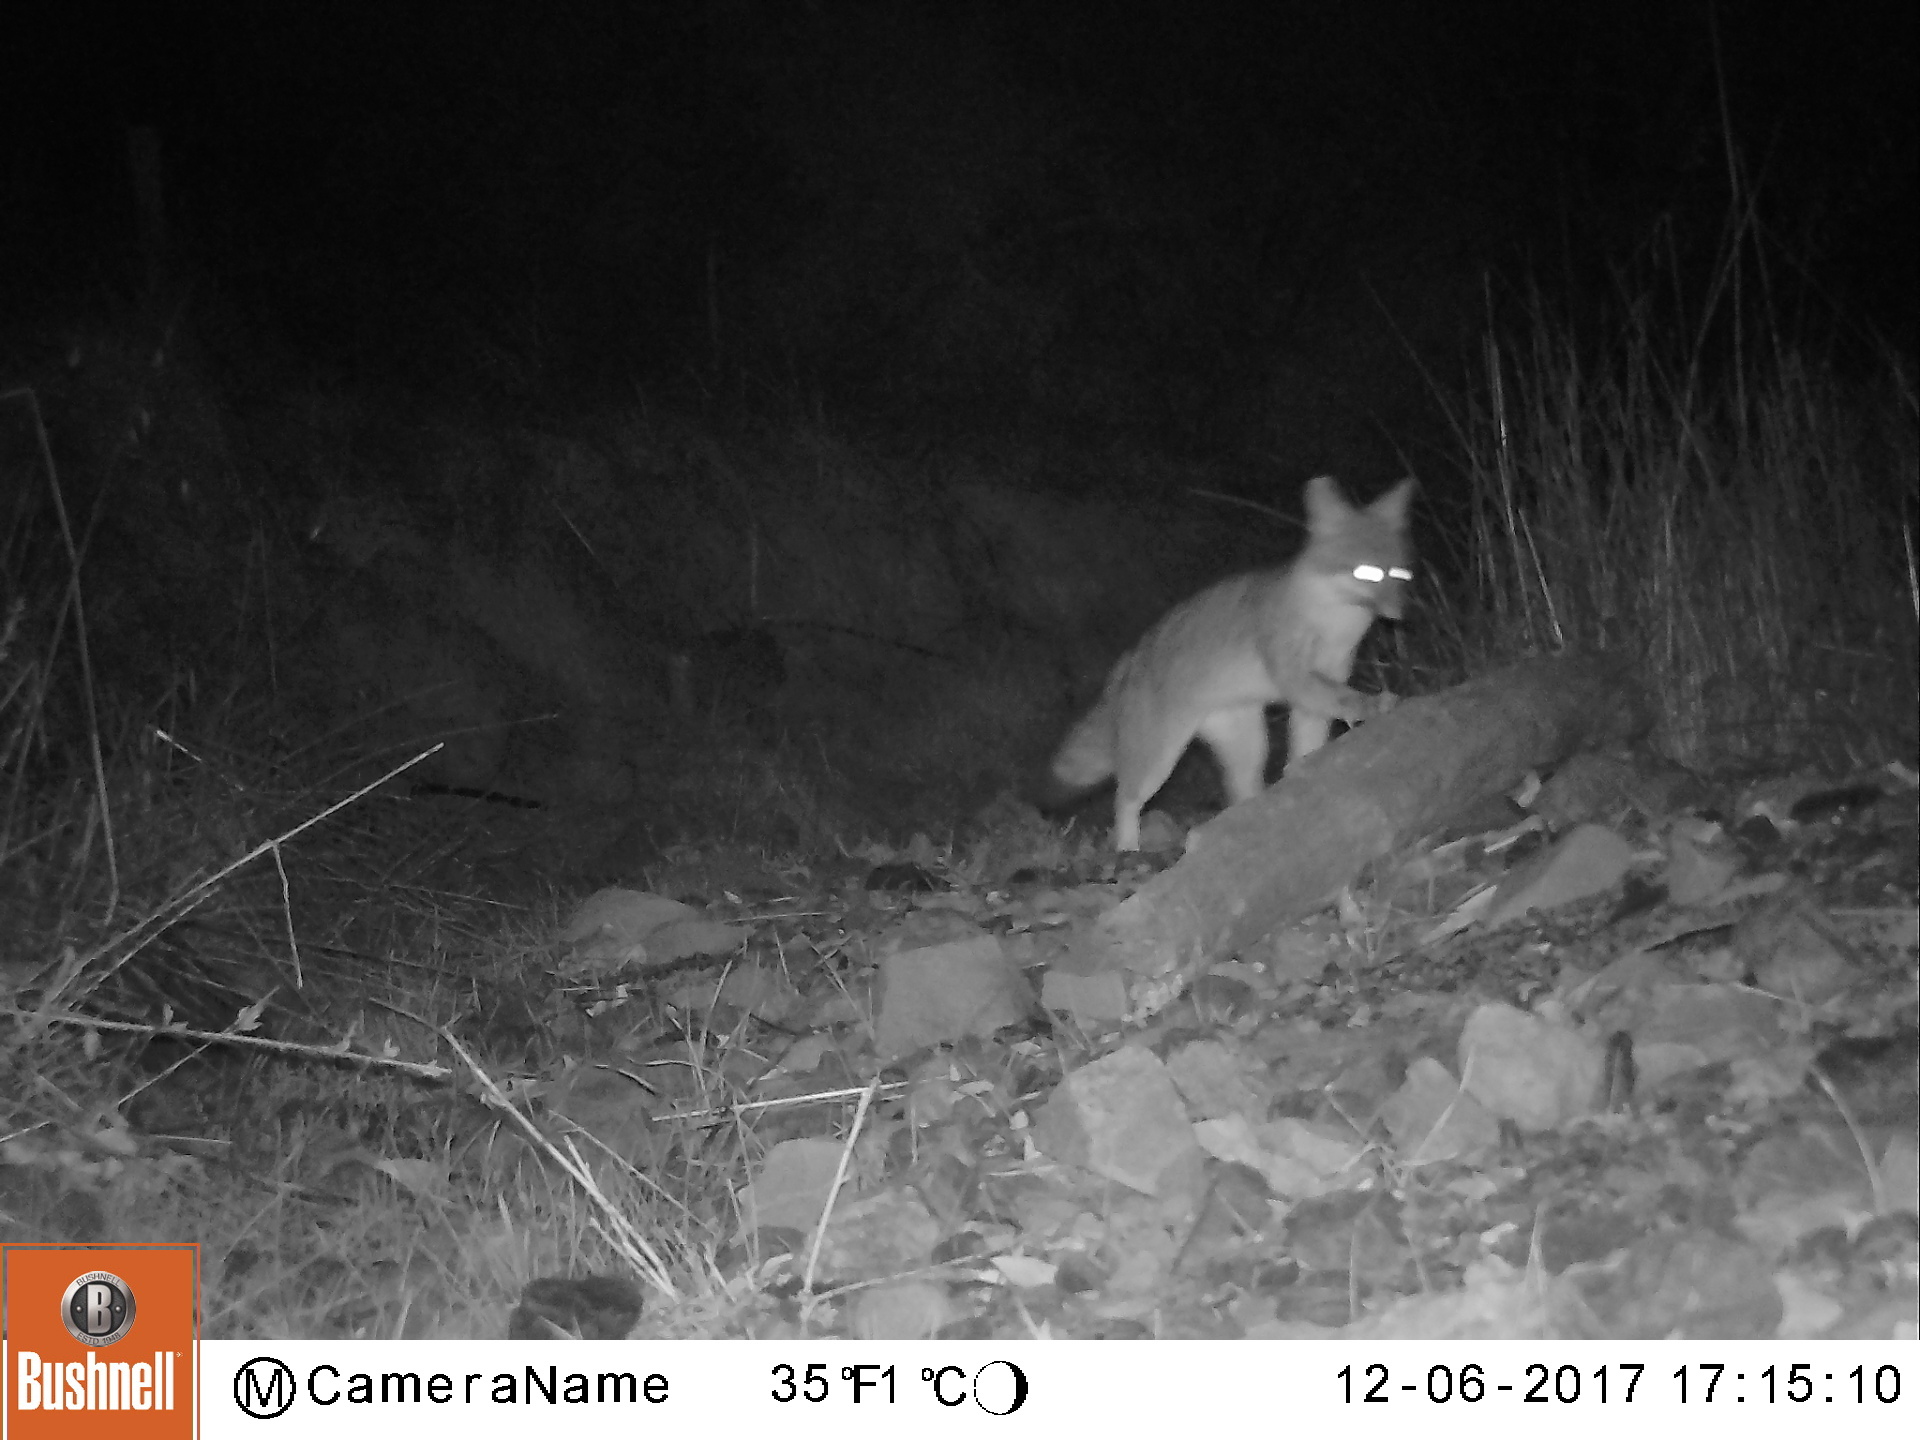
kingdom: Animalia
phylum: Chordata
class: Mammalia
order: Carnivora
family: Canidae
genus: Urocyon
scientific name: Urocyon cinereoargenteus
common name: Gray fox
